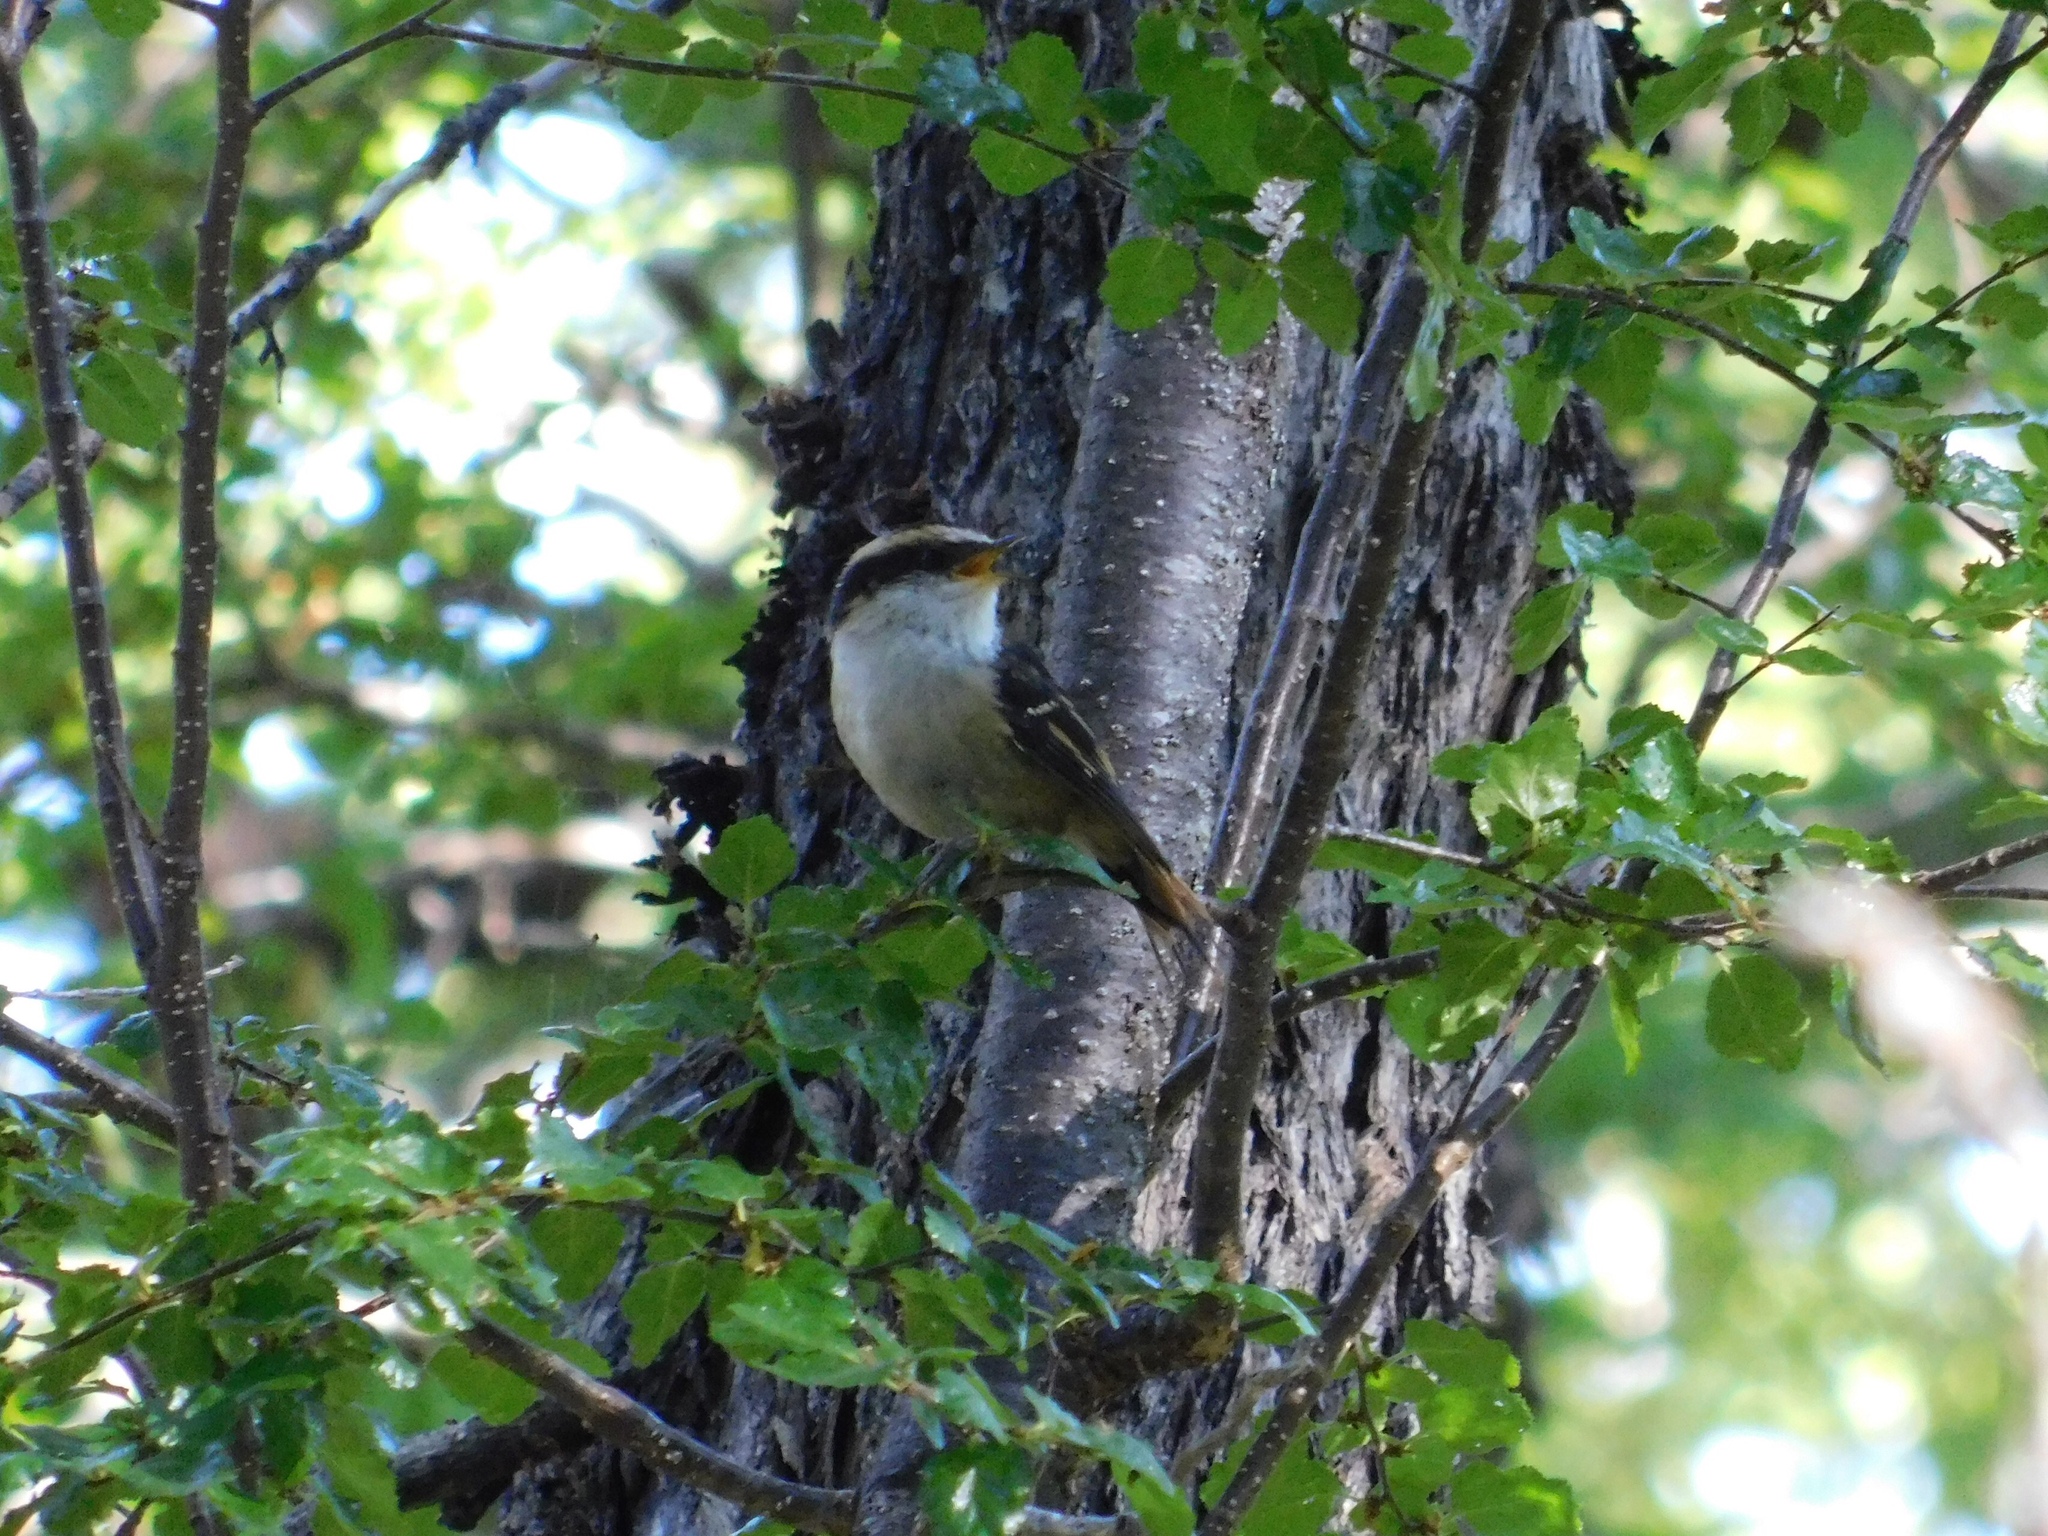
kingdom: Animalia
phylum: Chordata
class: Aves
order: Passeriformes
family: Furnariidae
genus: Aphrastura
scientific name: Aphrastura spinicauda
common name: Thorn-tailed rayadito
